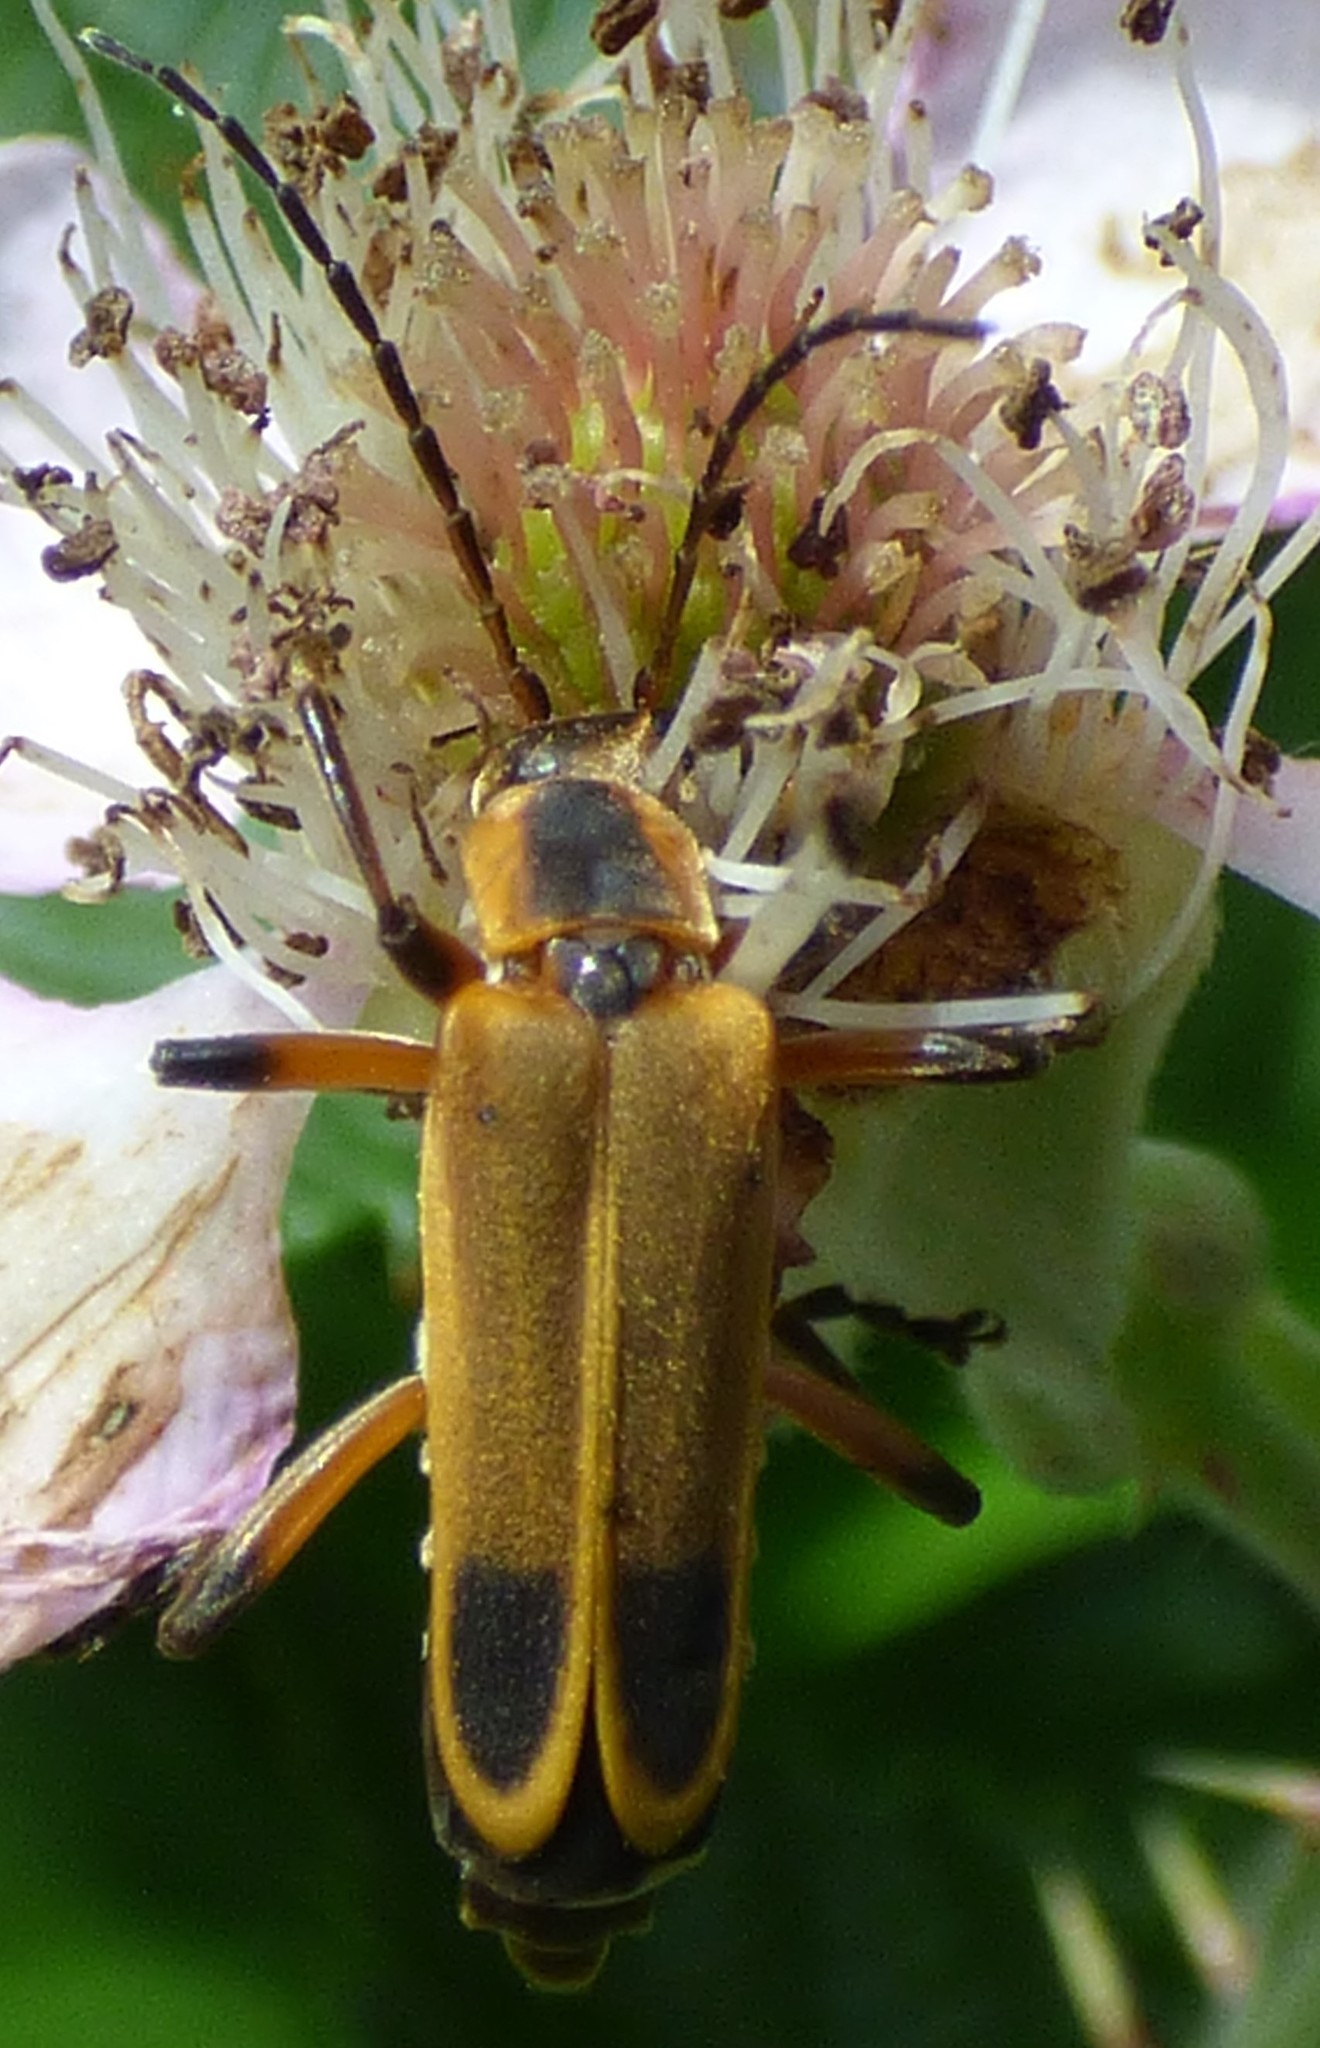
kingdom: Animalia
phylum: Arthropoda
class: Insecta
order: Coleoptera
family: Cantharidae
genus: Chauliognathus
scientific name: Chauliognathus marginatus
